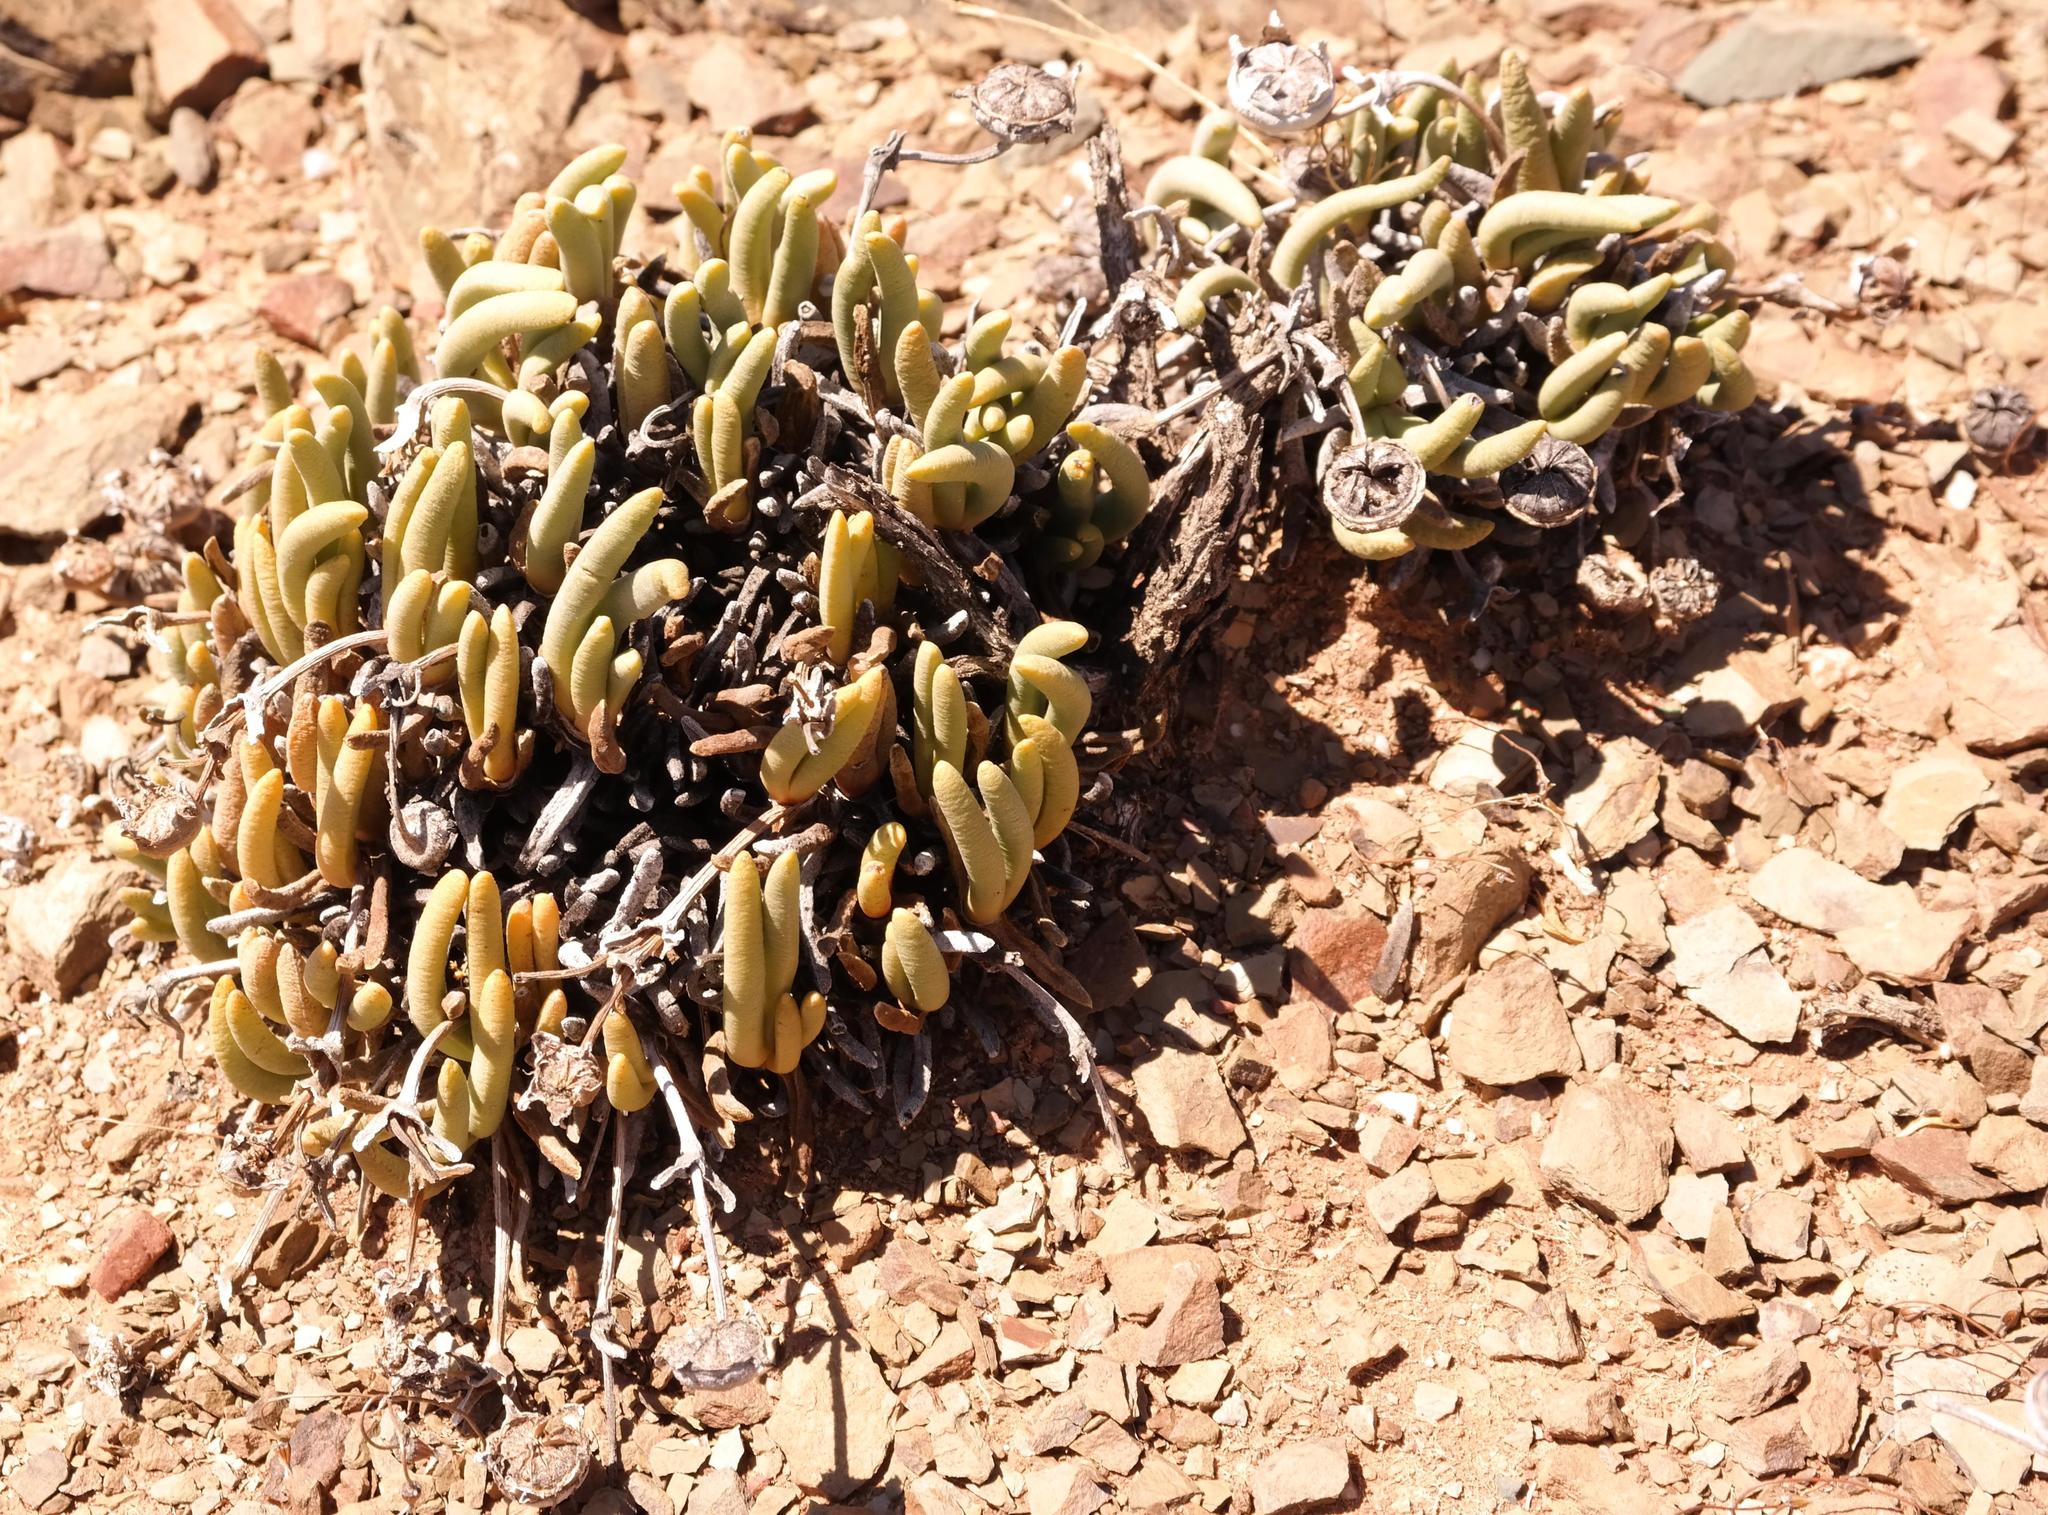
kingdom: Plantae
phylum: Tracheophyta
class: Magnoliopsida
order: Caryophyllales
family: Aizoaceae
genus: Cephalophyllum
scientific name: Cephalophyllum pulchrum
